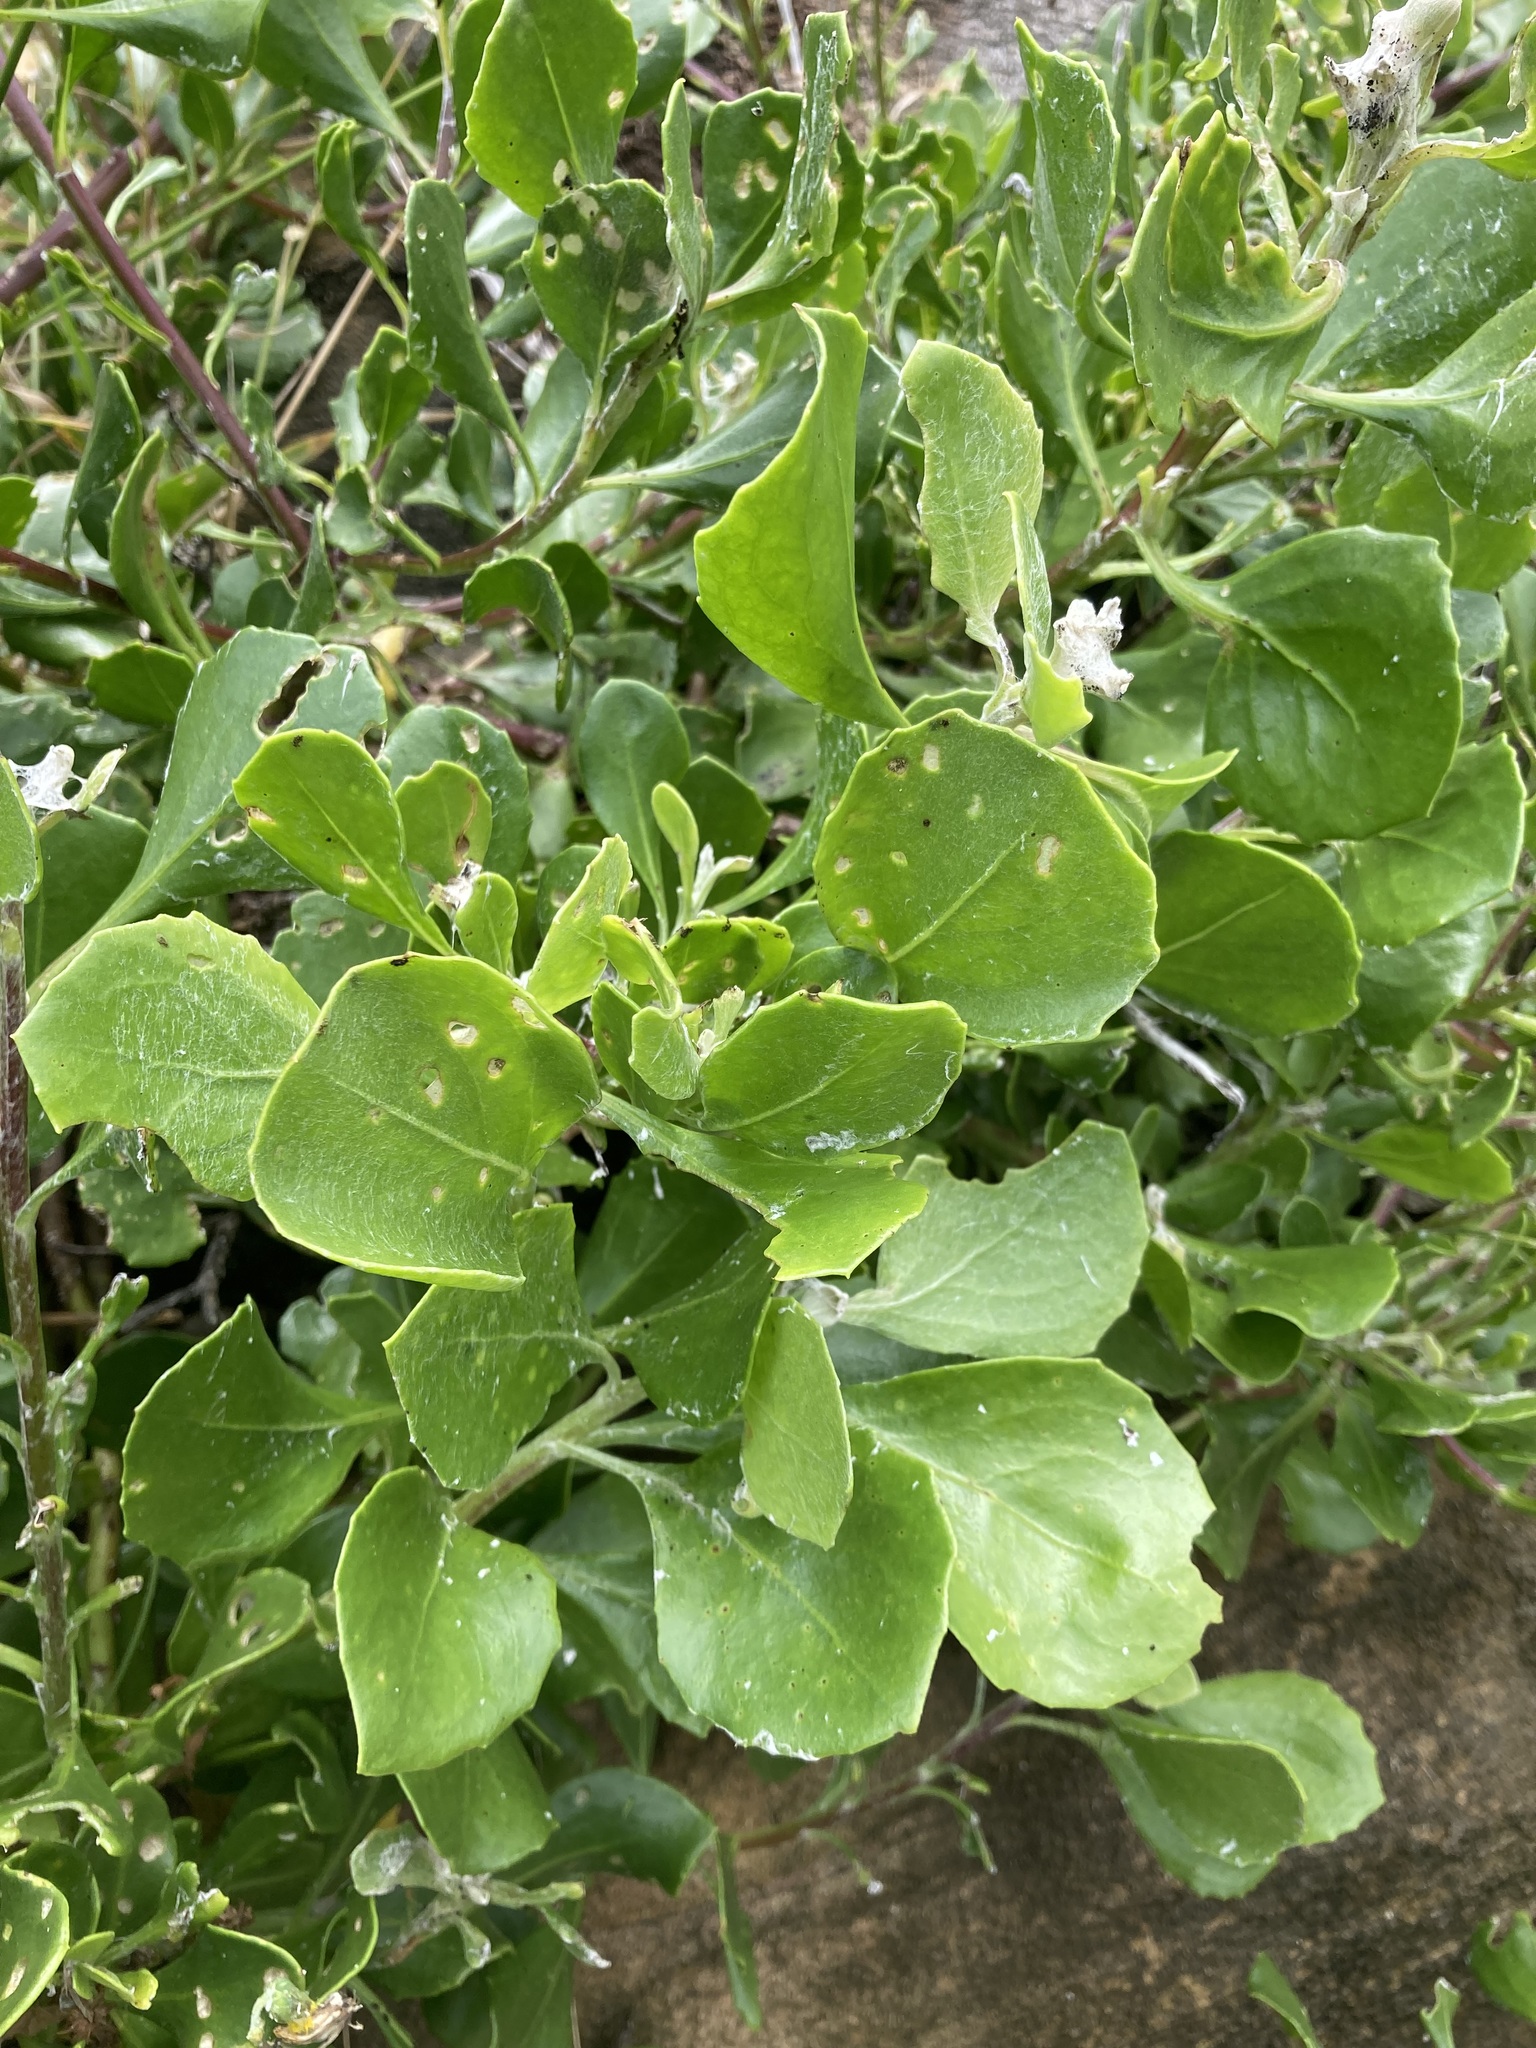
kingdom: Plantae
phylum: Tracheophyta
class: Magnoliopsida
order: Asterales
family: Asteraceae
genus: Osteospermum
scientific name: Osteospermum moniliferum
